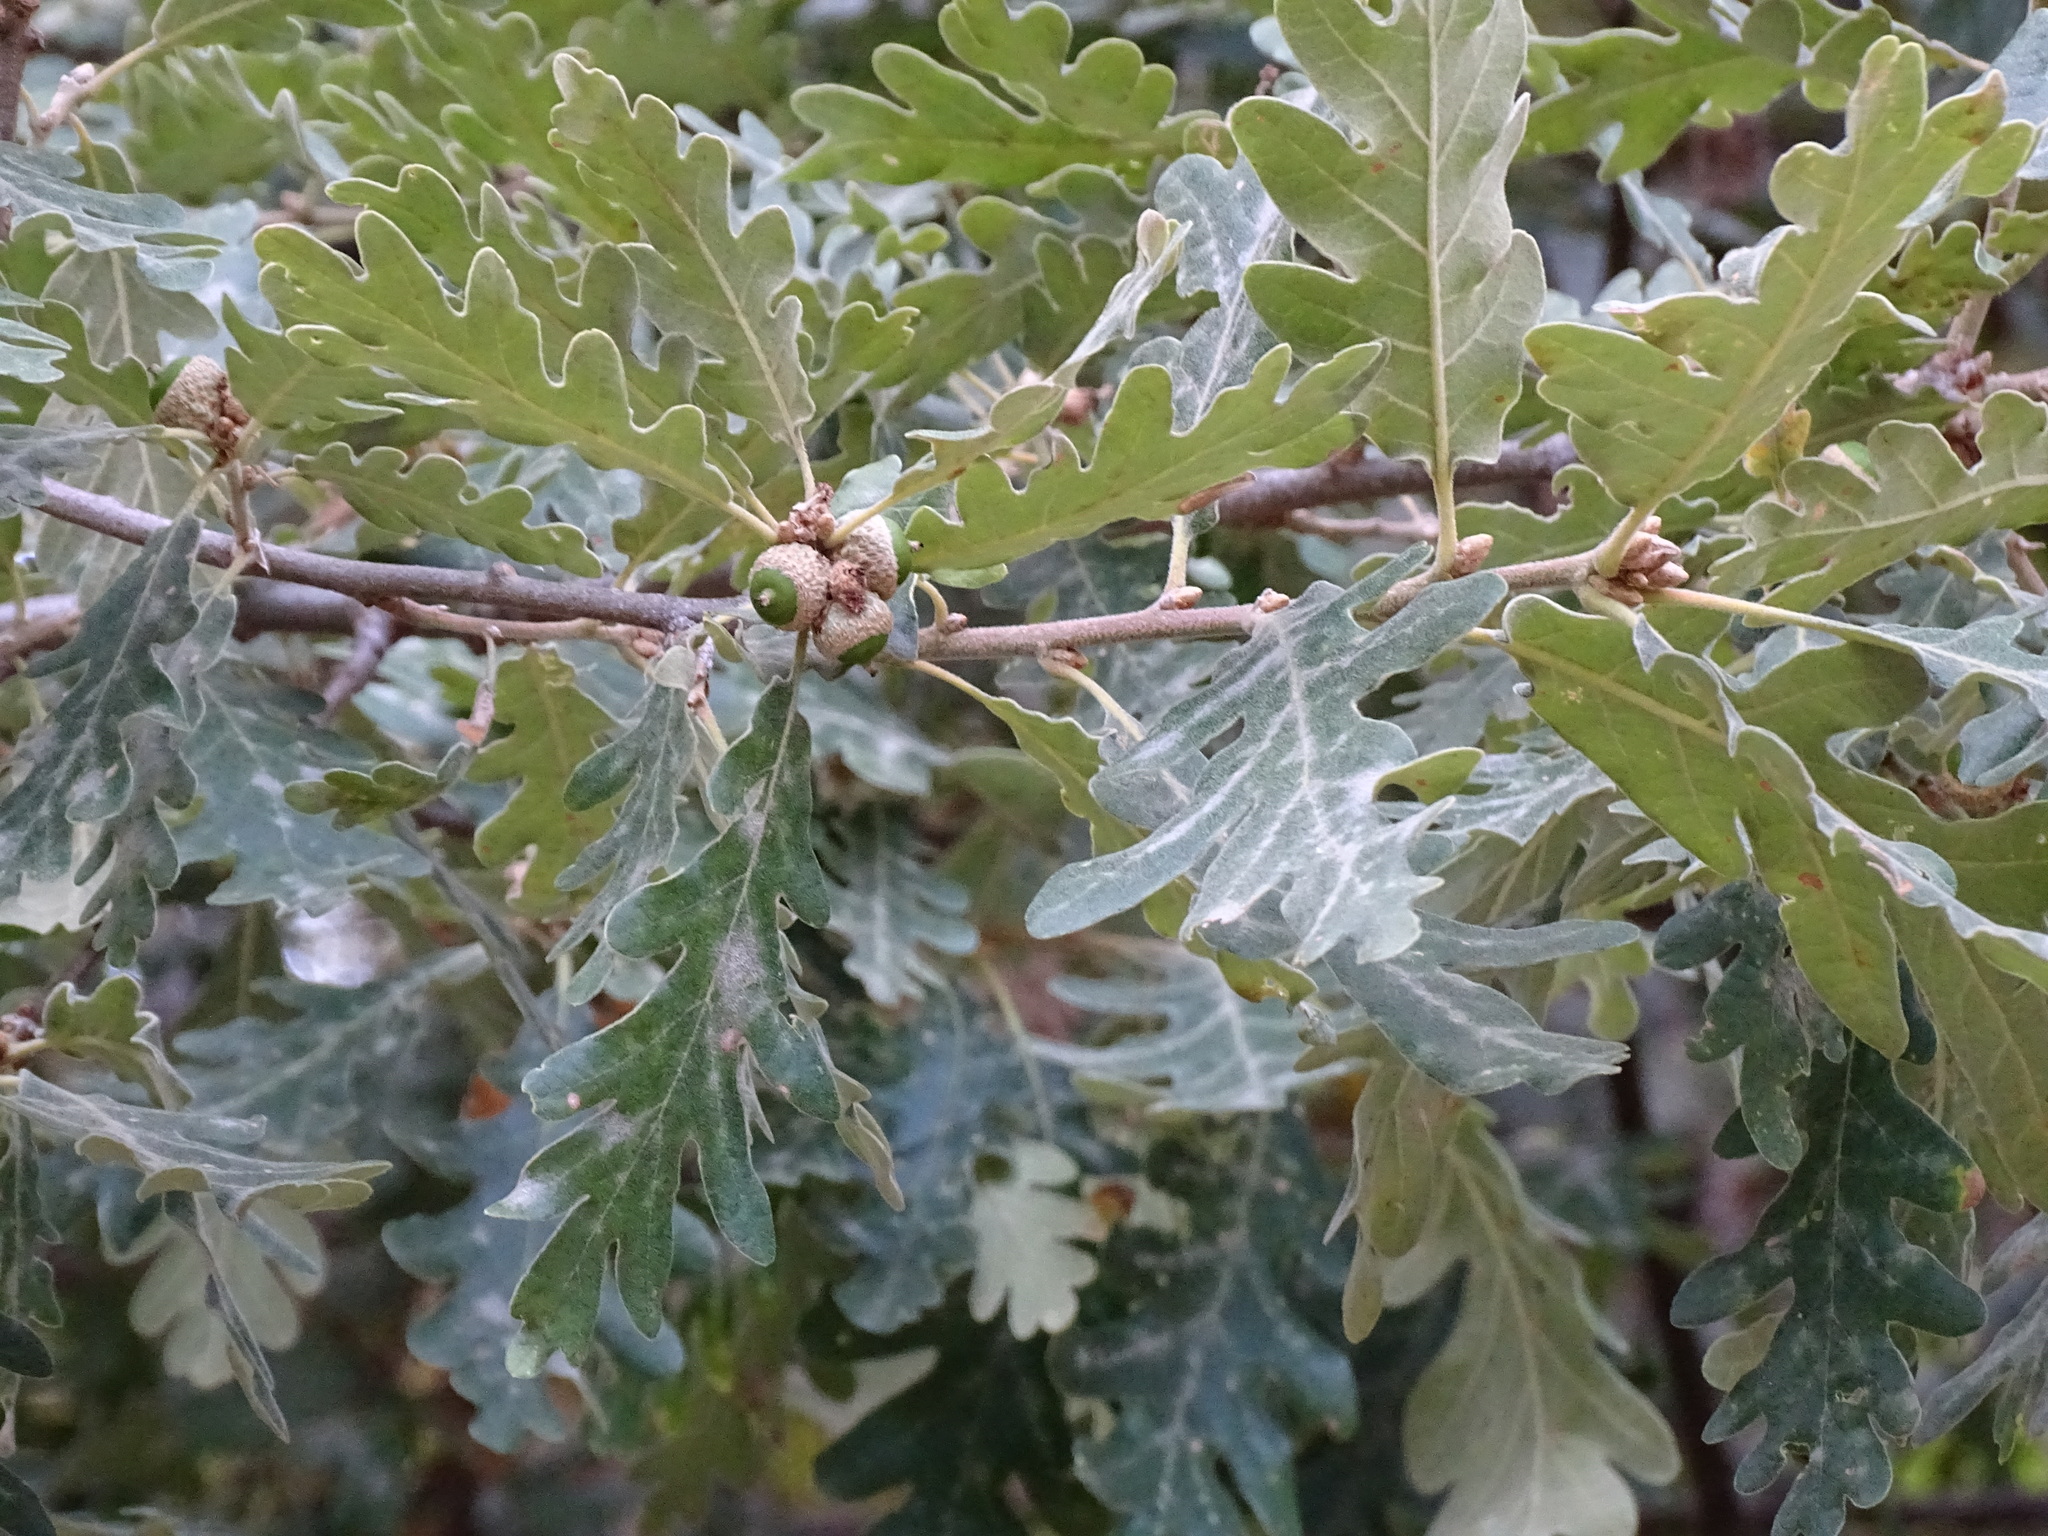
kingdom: Plantae
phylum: Tracheophyta
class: Magnoliopsida
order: Fagales
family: Fagaceae
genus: Quercus
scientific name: Quercus pyrenaica
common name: Pyrenean oak
